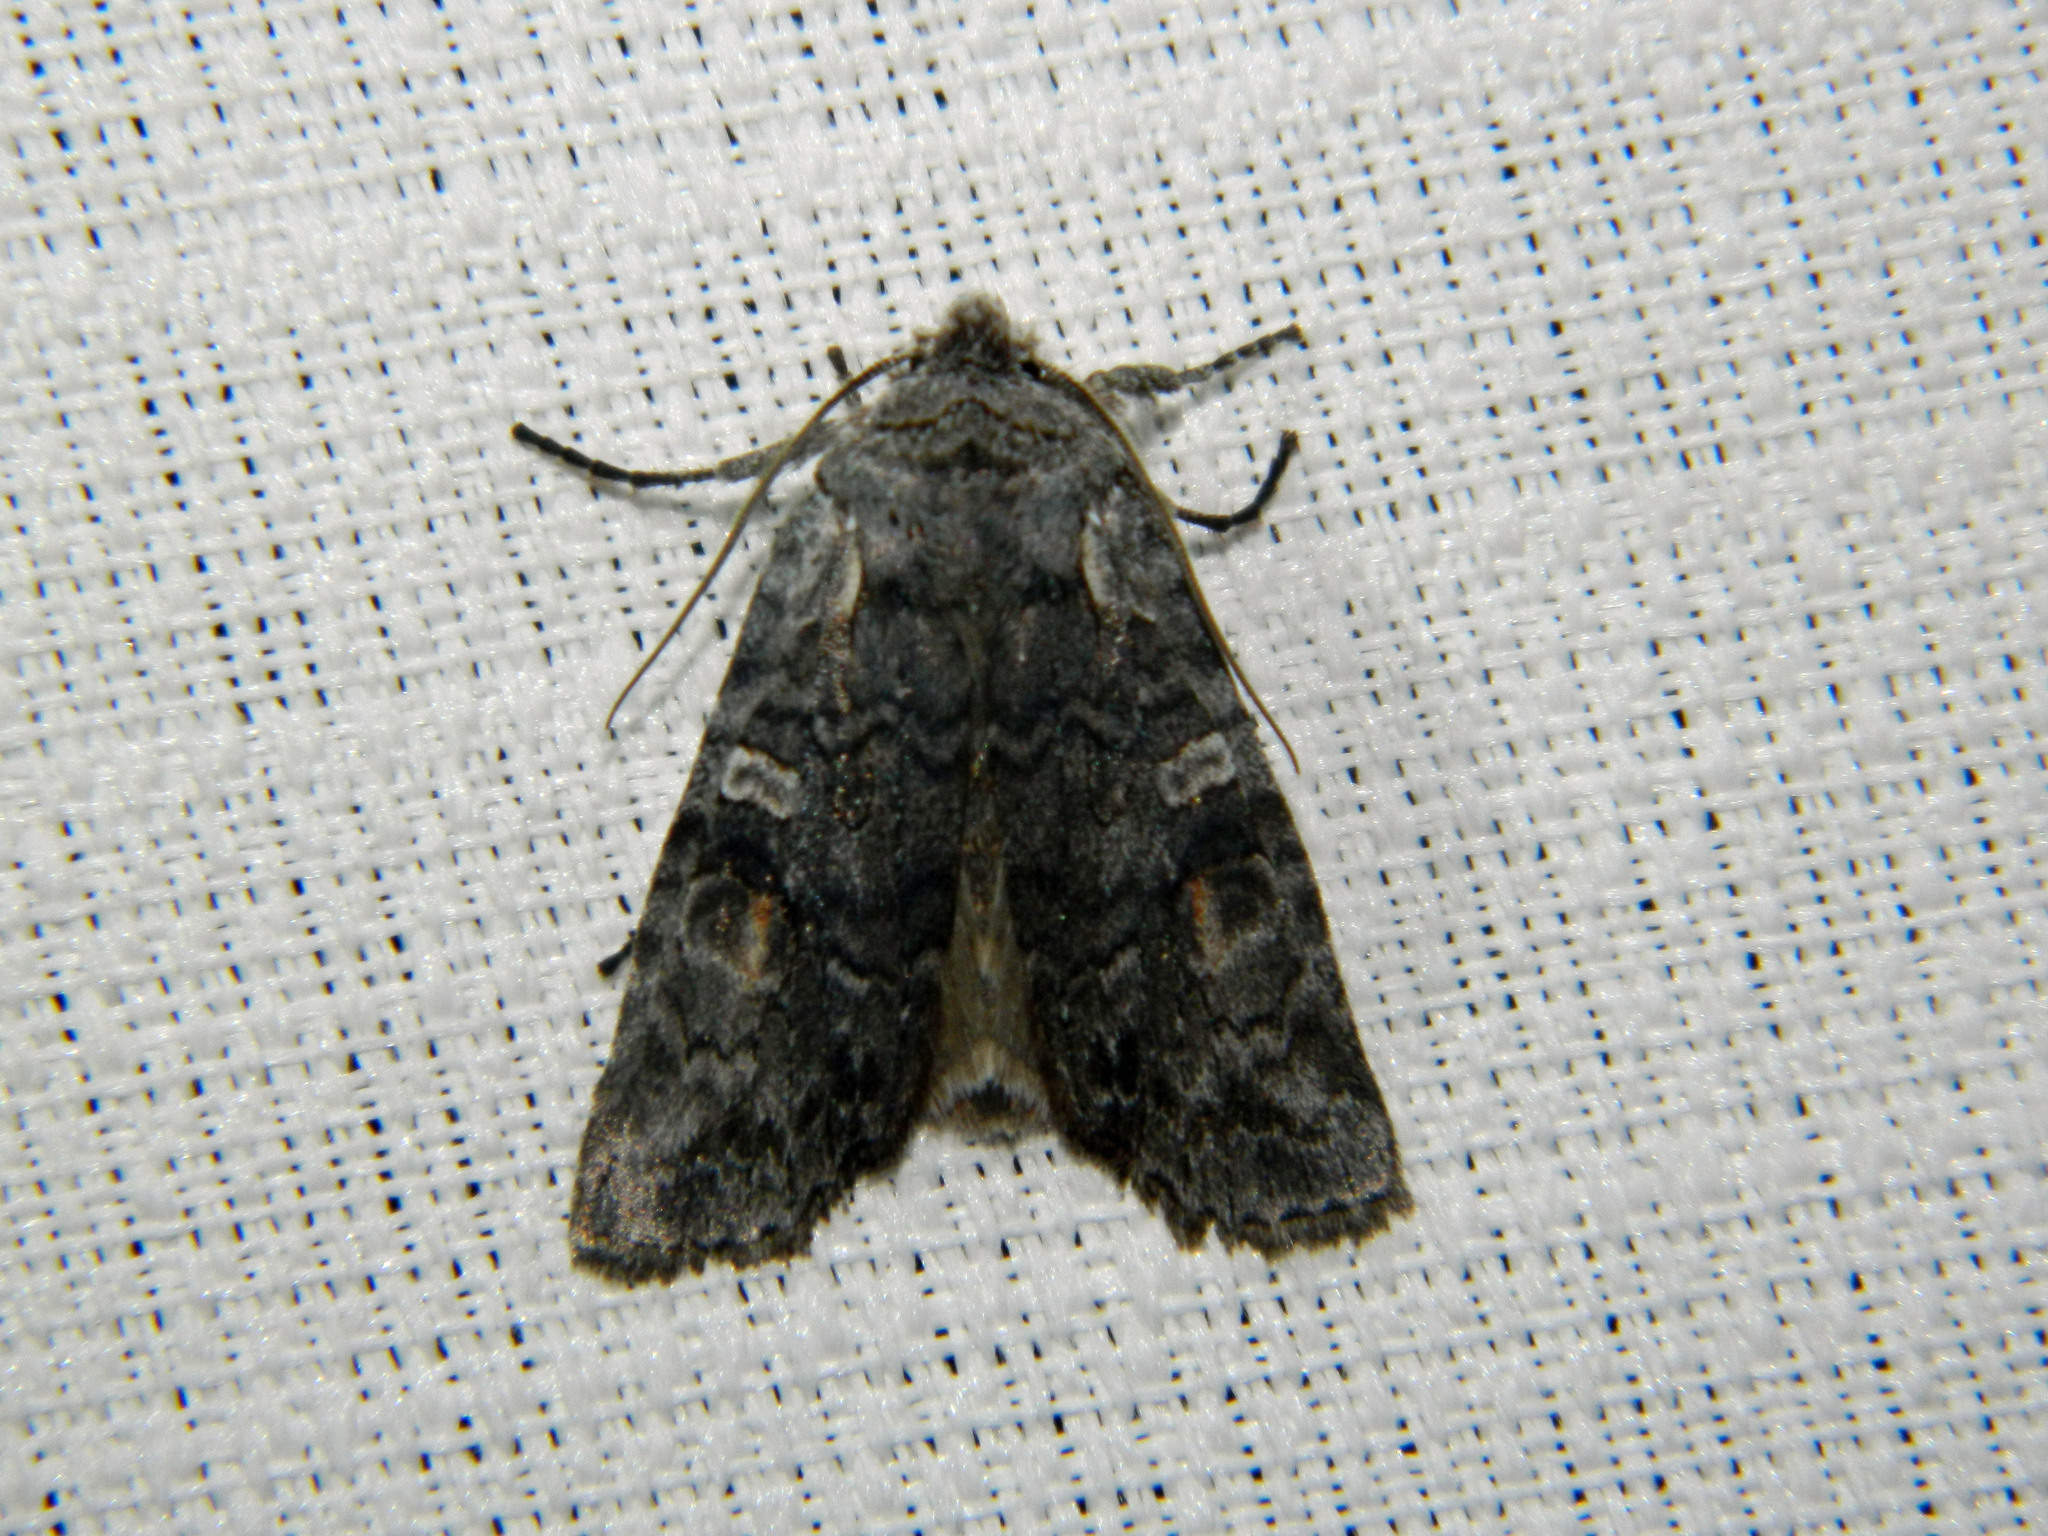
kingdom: Animalia
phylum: Arthropoda
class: Insecta
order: Lepidoptera
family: Noctuidae
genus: Lithophane
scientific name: Lithophane tepida
